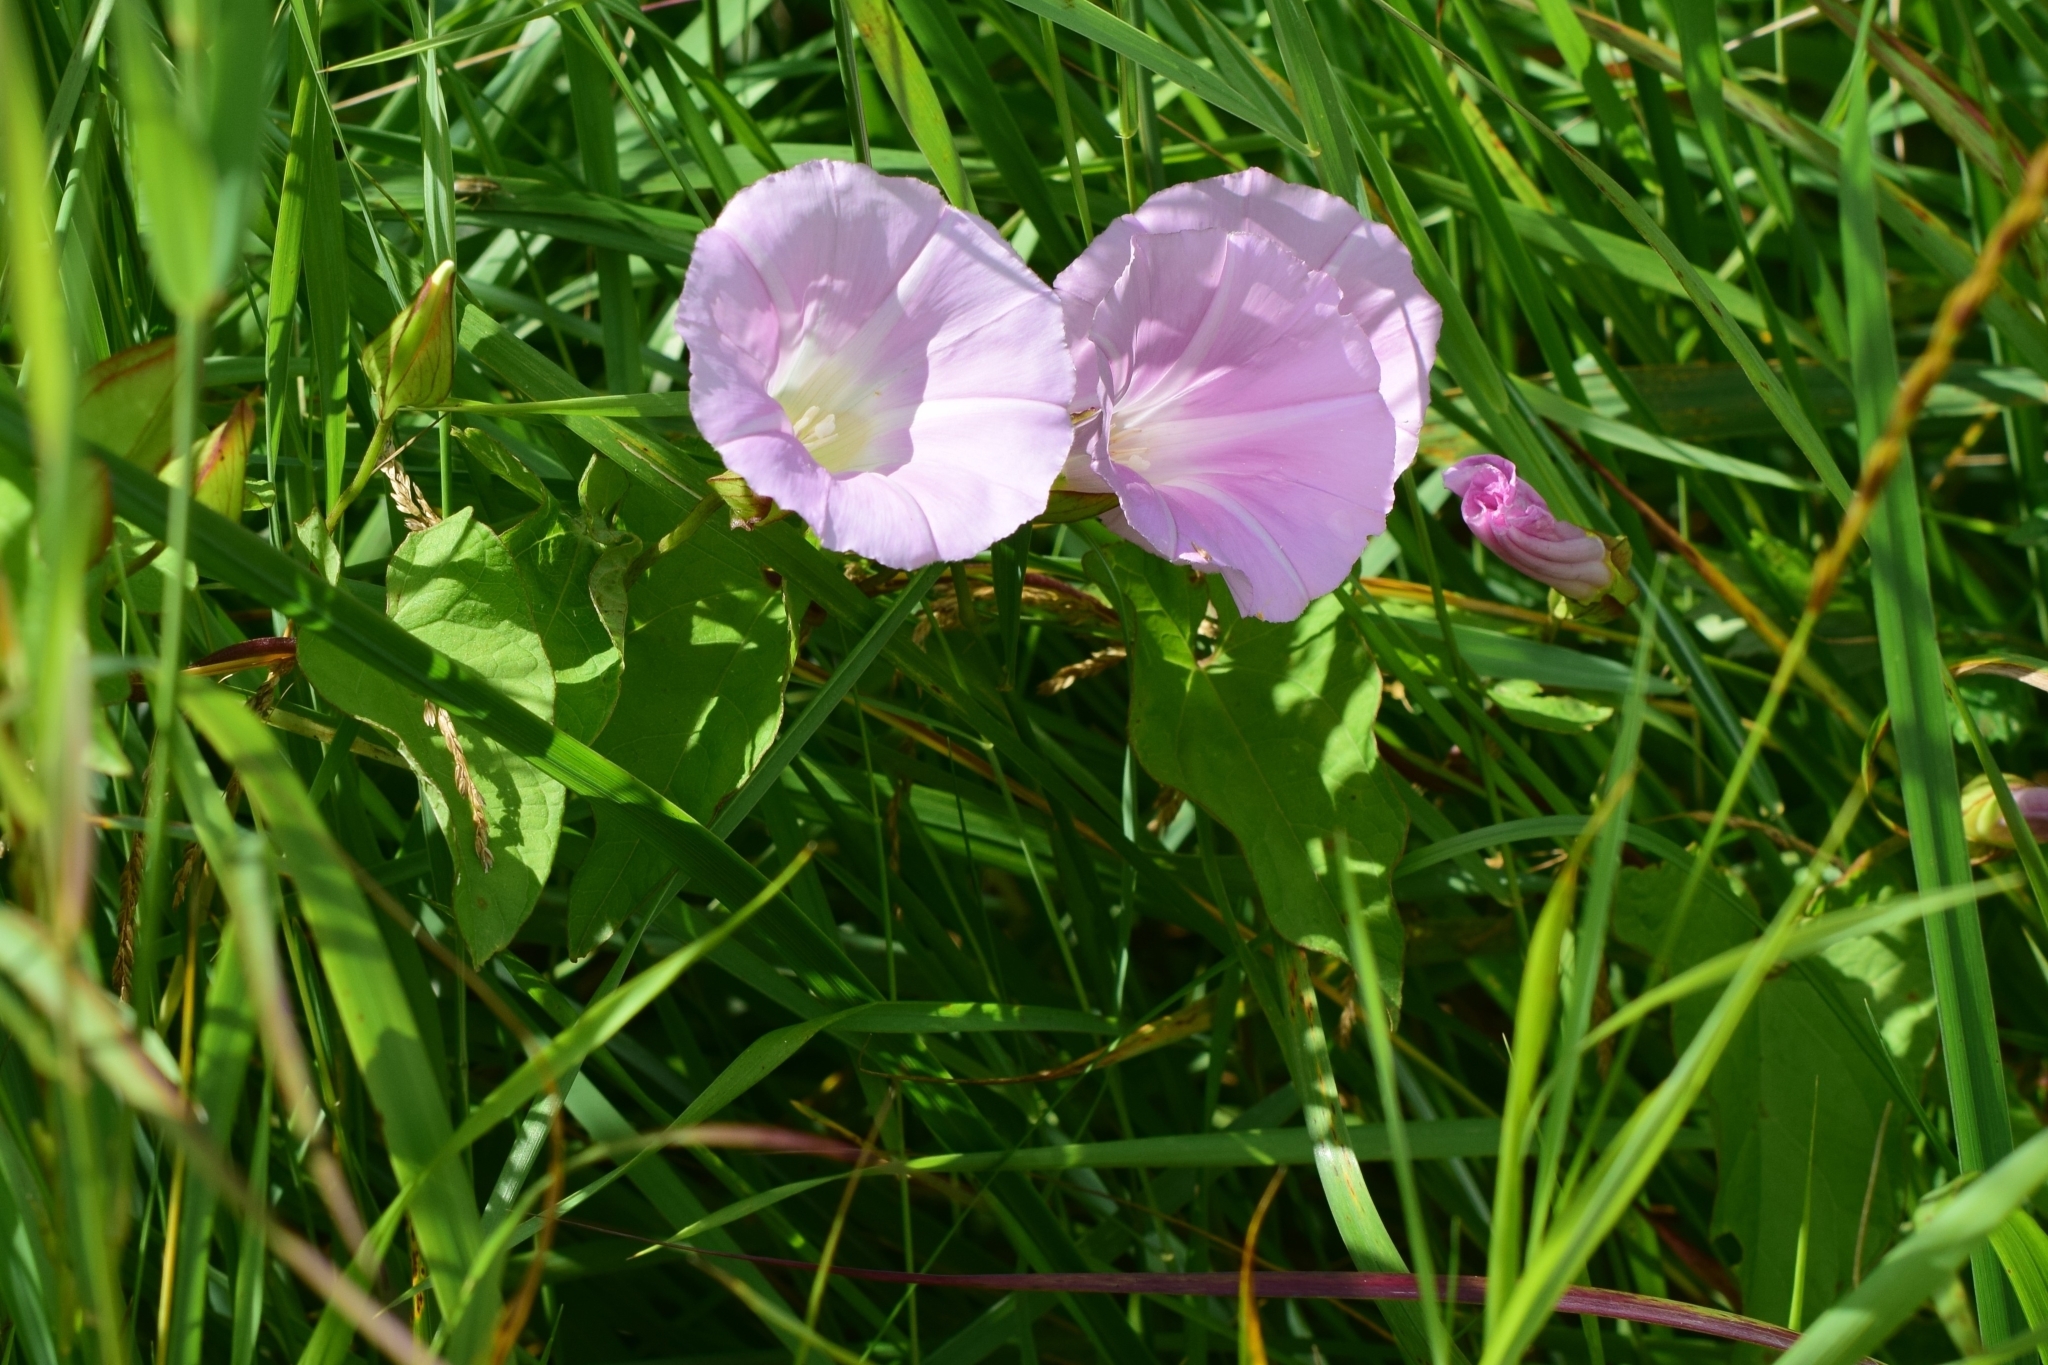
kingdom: Plantae
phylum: Tracheophyta
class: Magnoliopsida
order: Solanales
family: Convolvulaceae
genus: Calystegia
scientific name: Calystegia sepium
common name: Hedge bindweed
